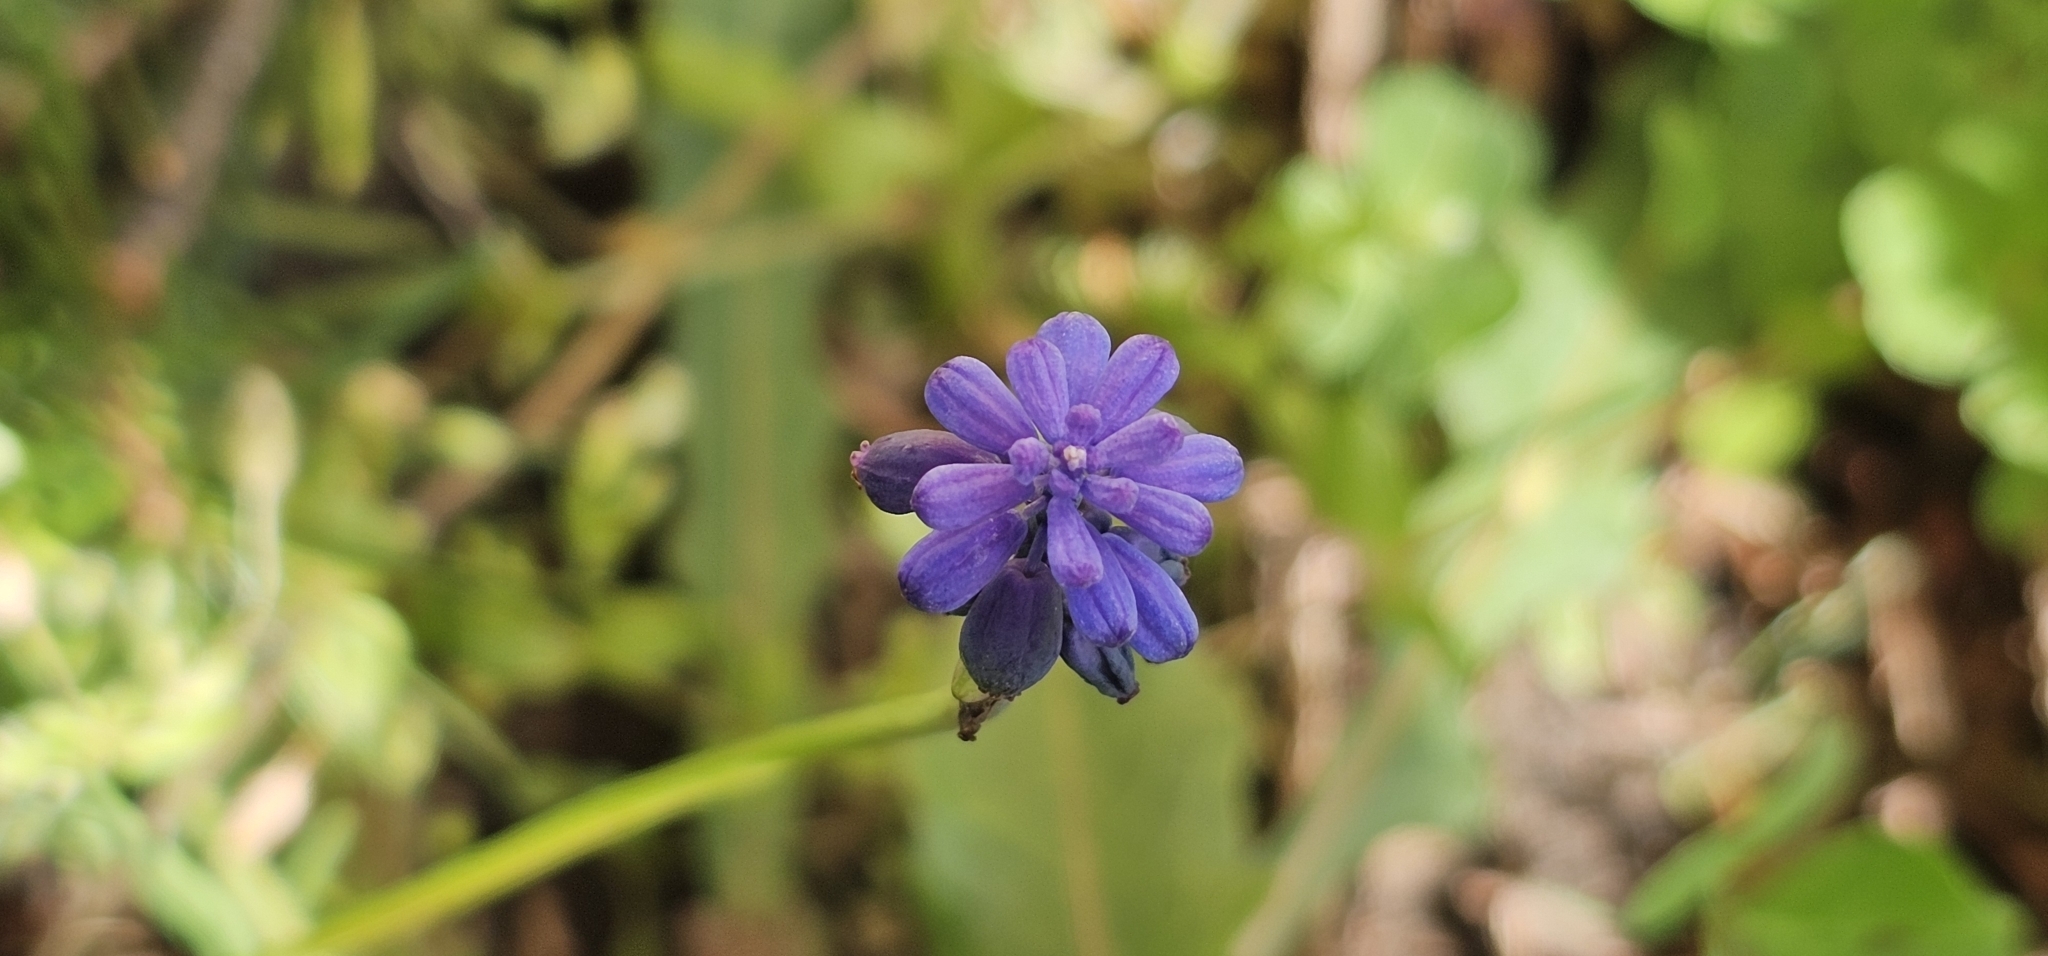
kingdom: Plantae
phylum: Tracheophyta
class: Liliopsida
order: Asparagales
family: Asparagaceae
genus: Muscari
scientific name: Muscari neglectum
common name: Grape-hyacinth
